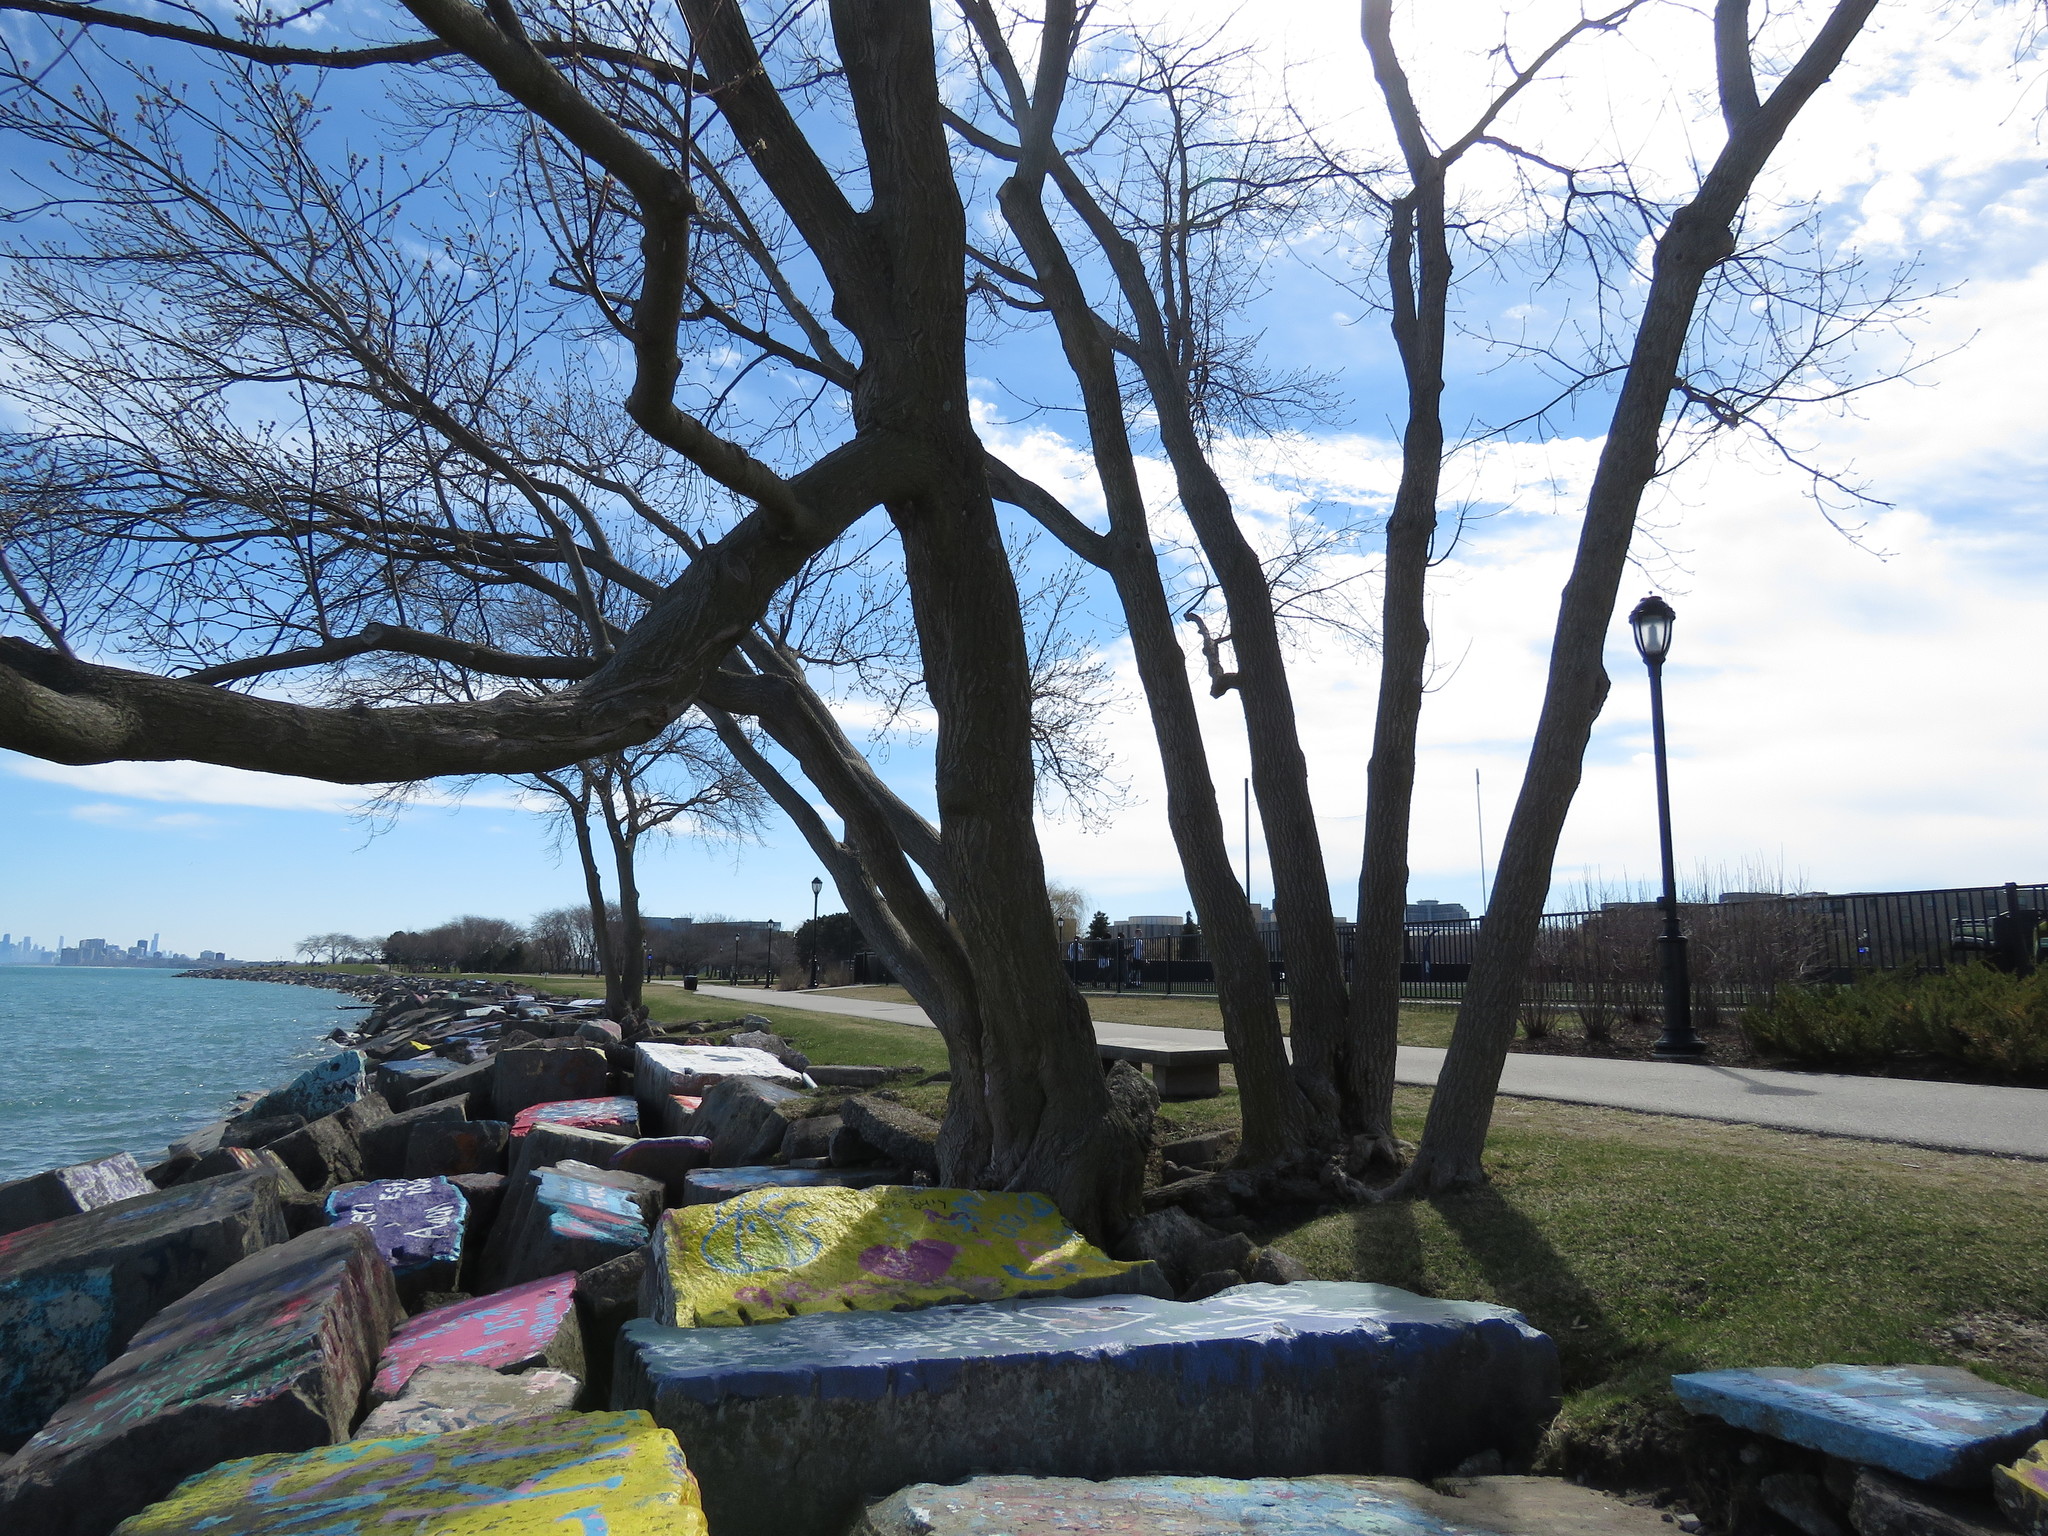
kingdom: Plantae
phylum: Tracheophyta
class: Magnoliopsida
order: Sapindales
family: Sapindaceae
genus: Acer
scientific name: Acer negundo
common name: Ashleaf maple
